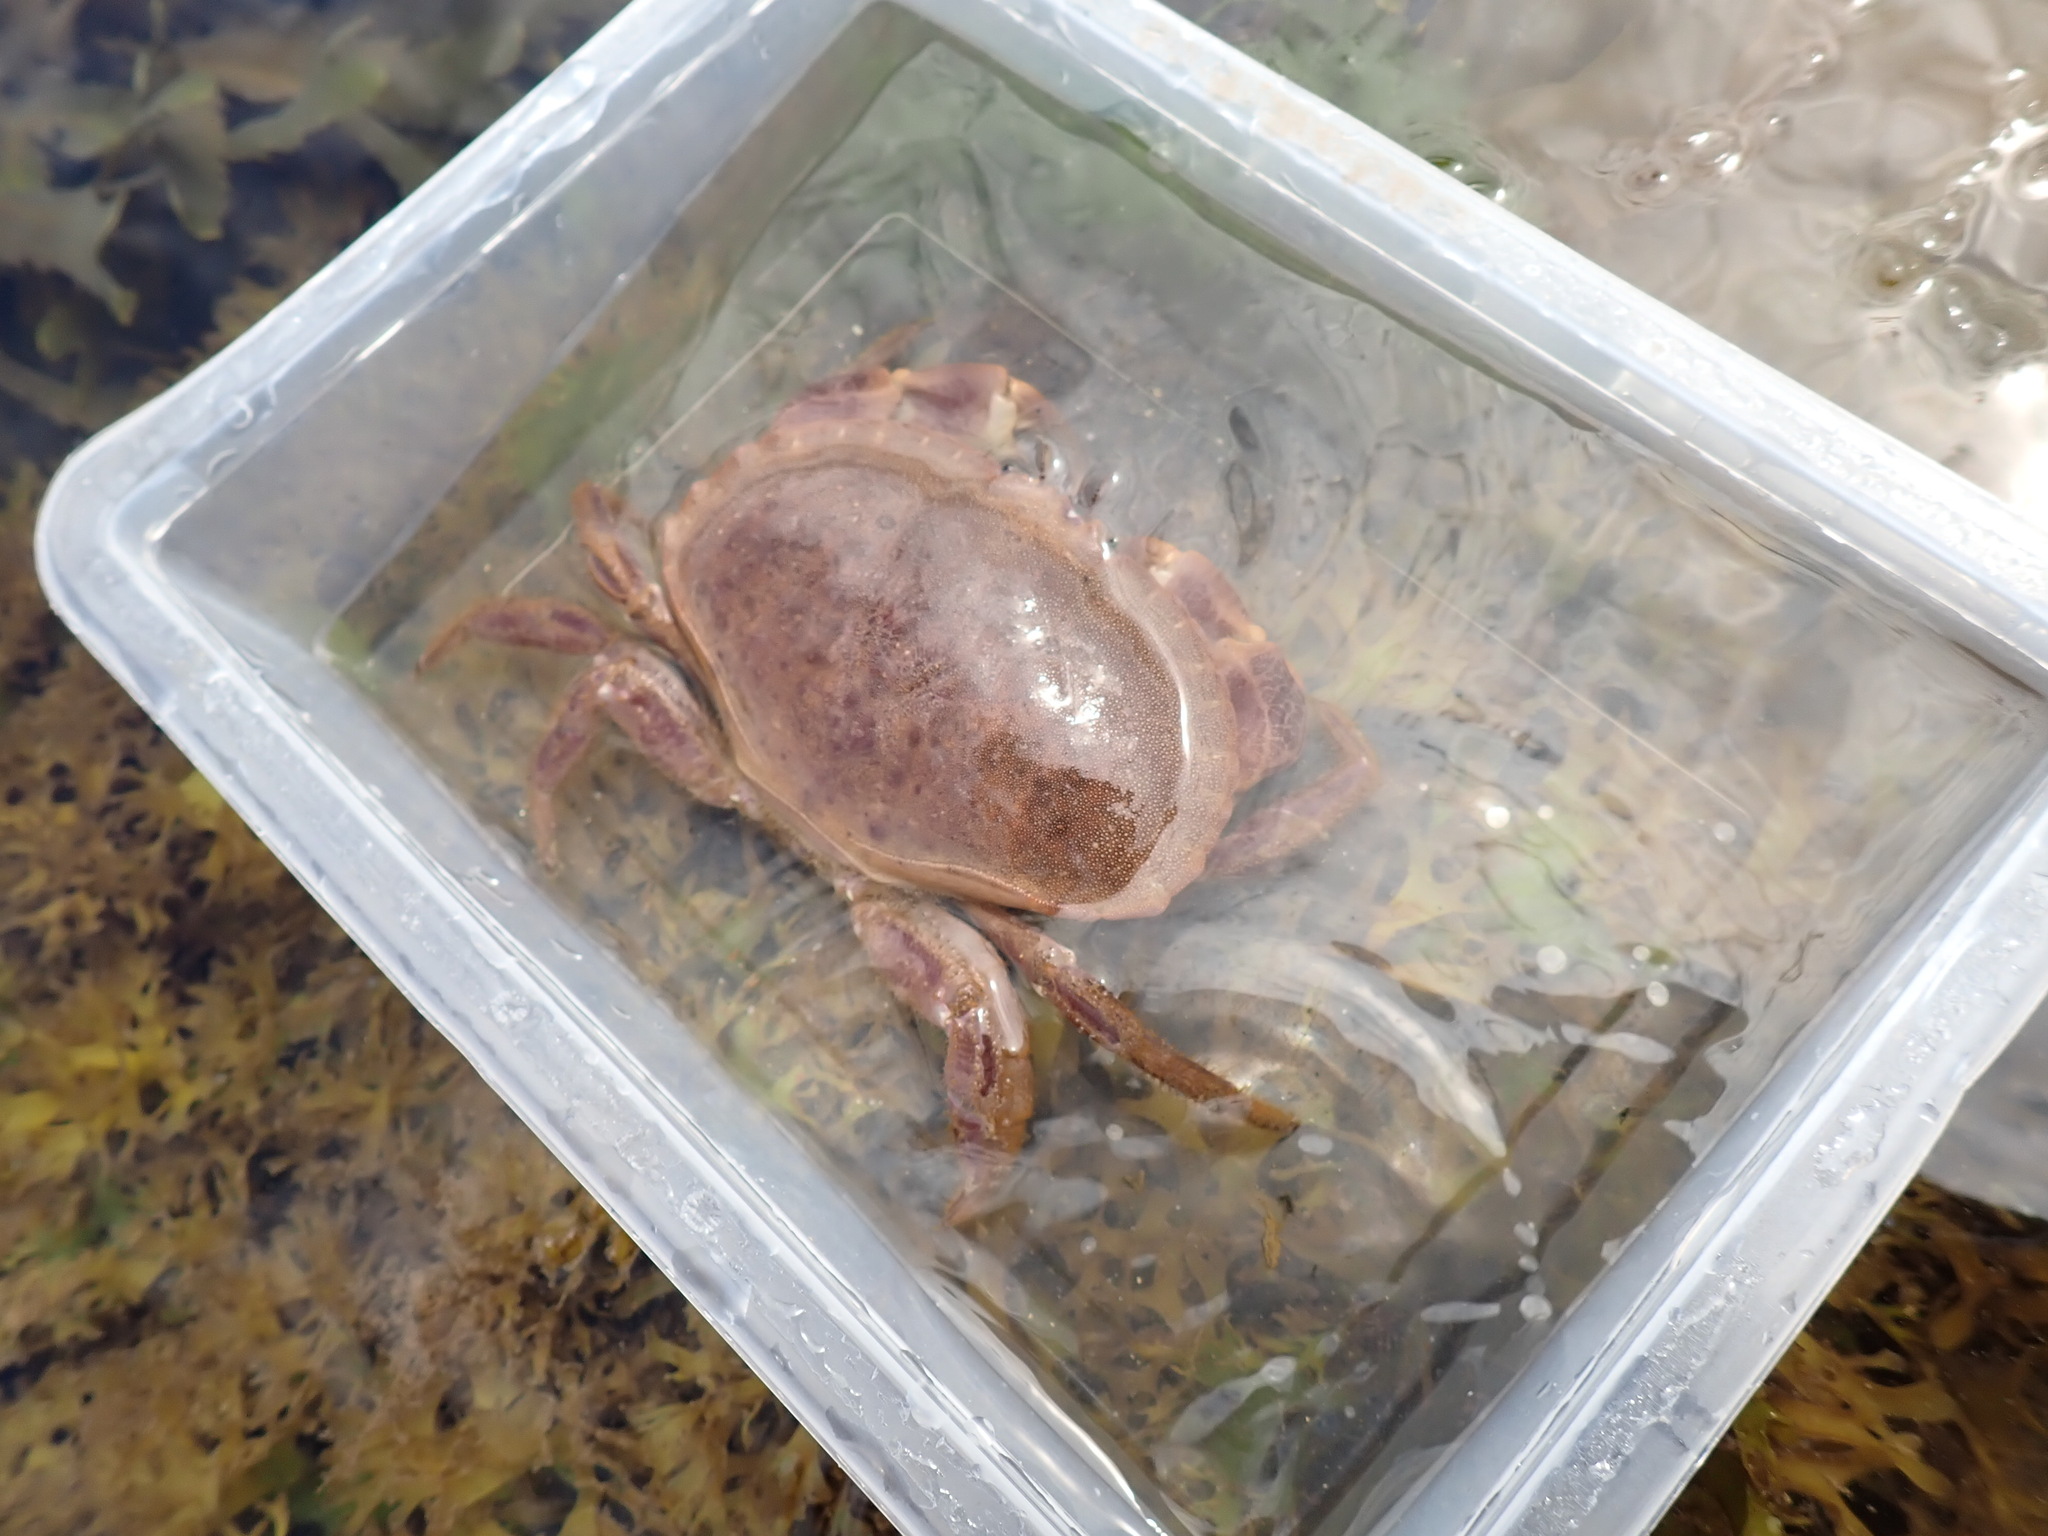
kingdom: Animalia
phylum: Arthropoda
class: Malacostraca
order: Decapoda
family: Cancridae
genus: Cancer
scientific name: Cancer pagurus
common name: Edible crab
